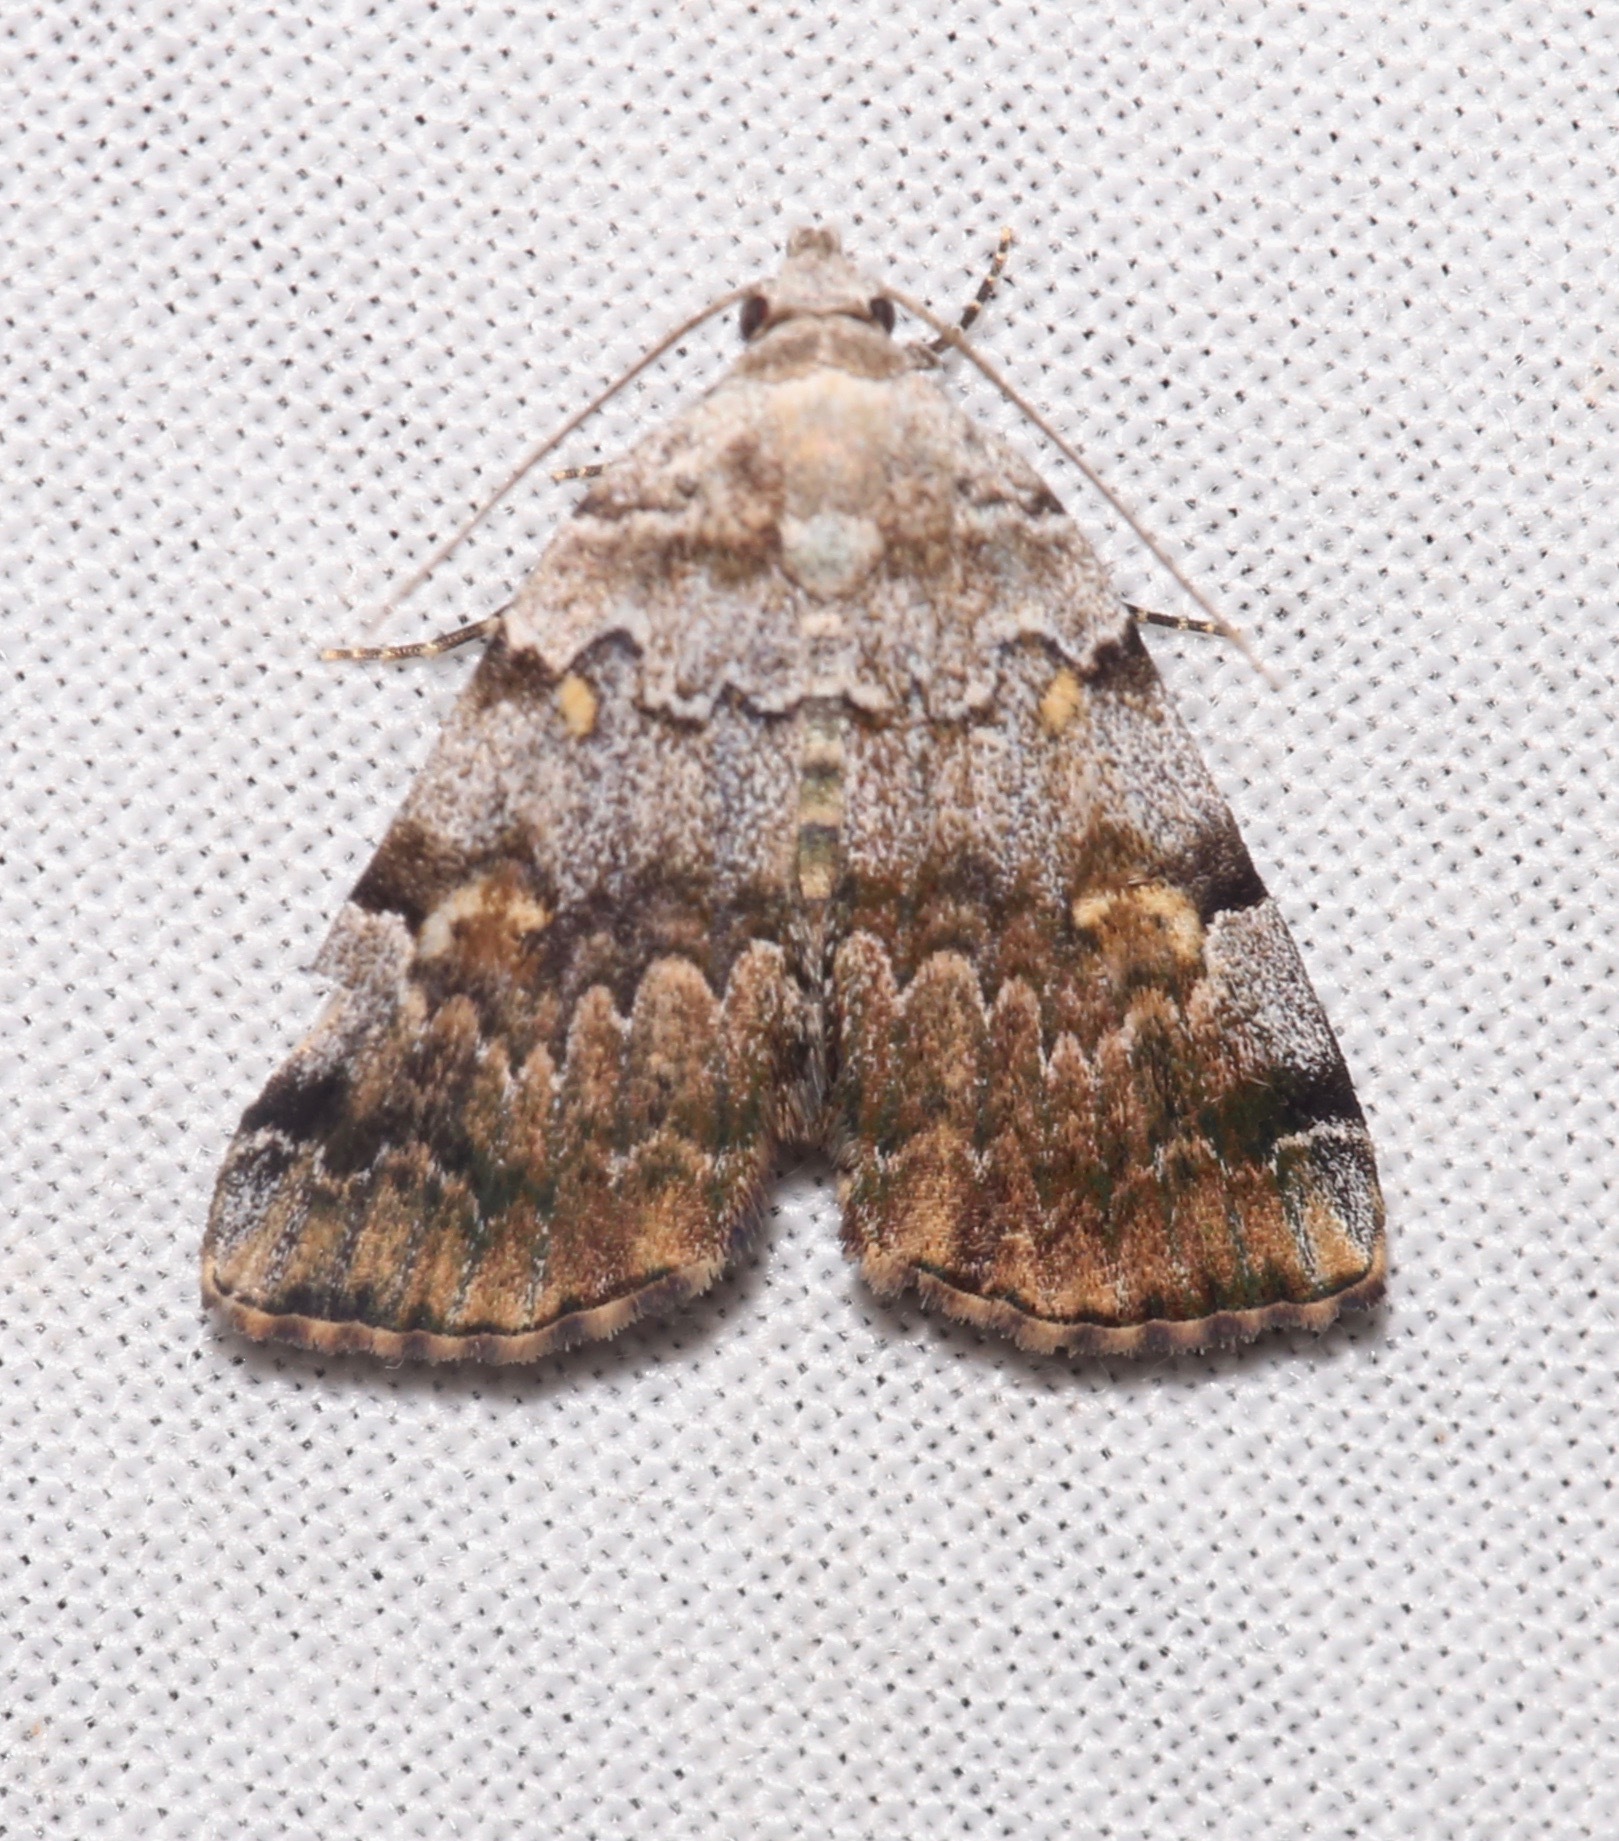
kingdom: Animalia
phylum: Arthropoda
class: Insecta
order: Lepidoptera
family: Erebidae
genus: Idia
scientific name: Idia americalis
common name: American idia moth
